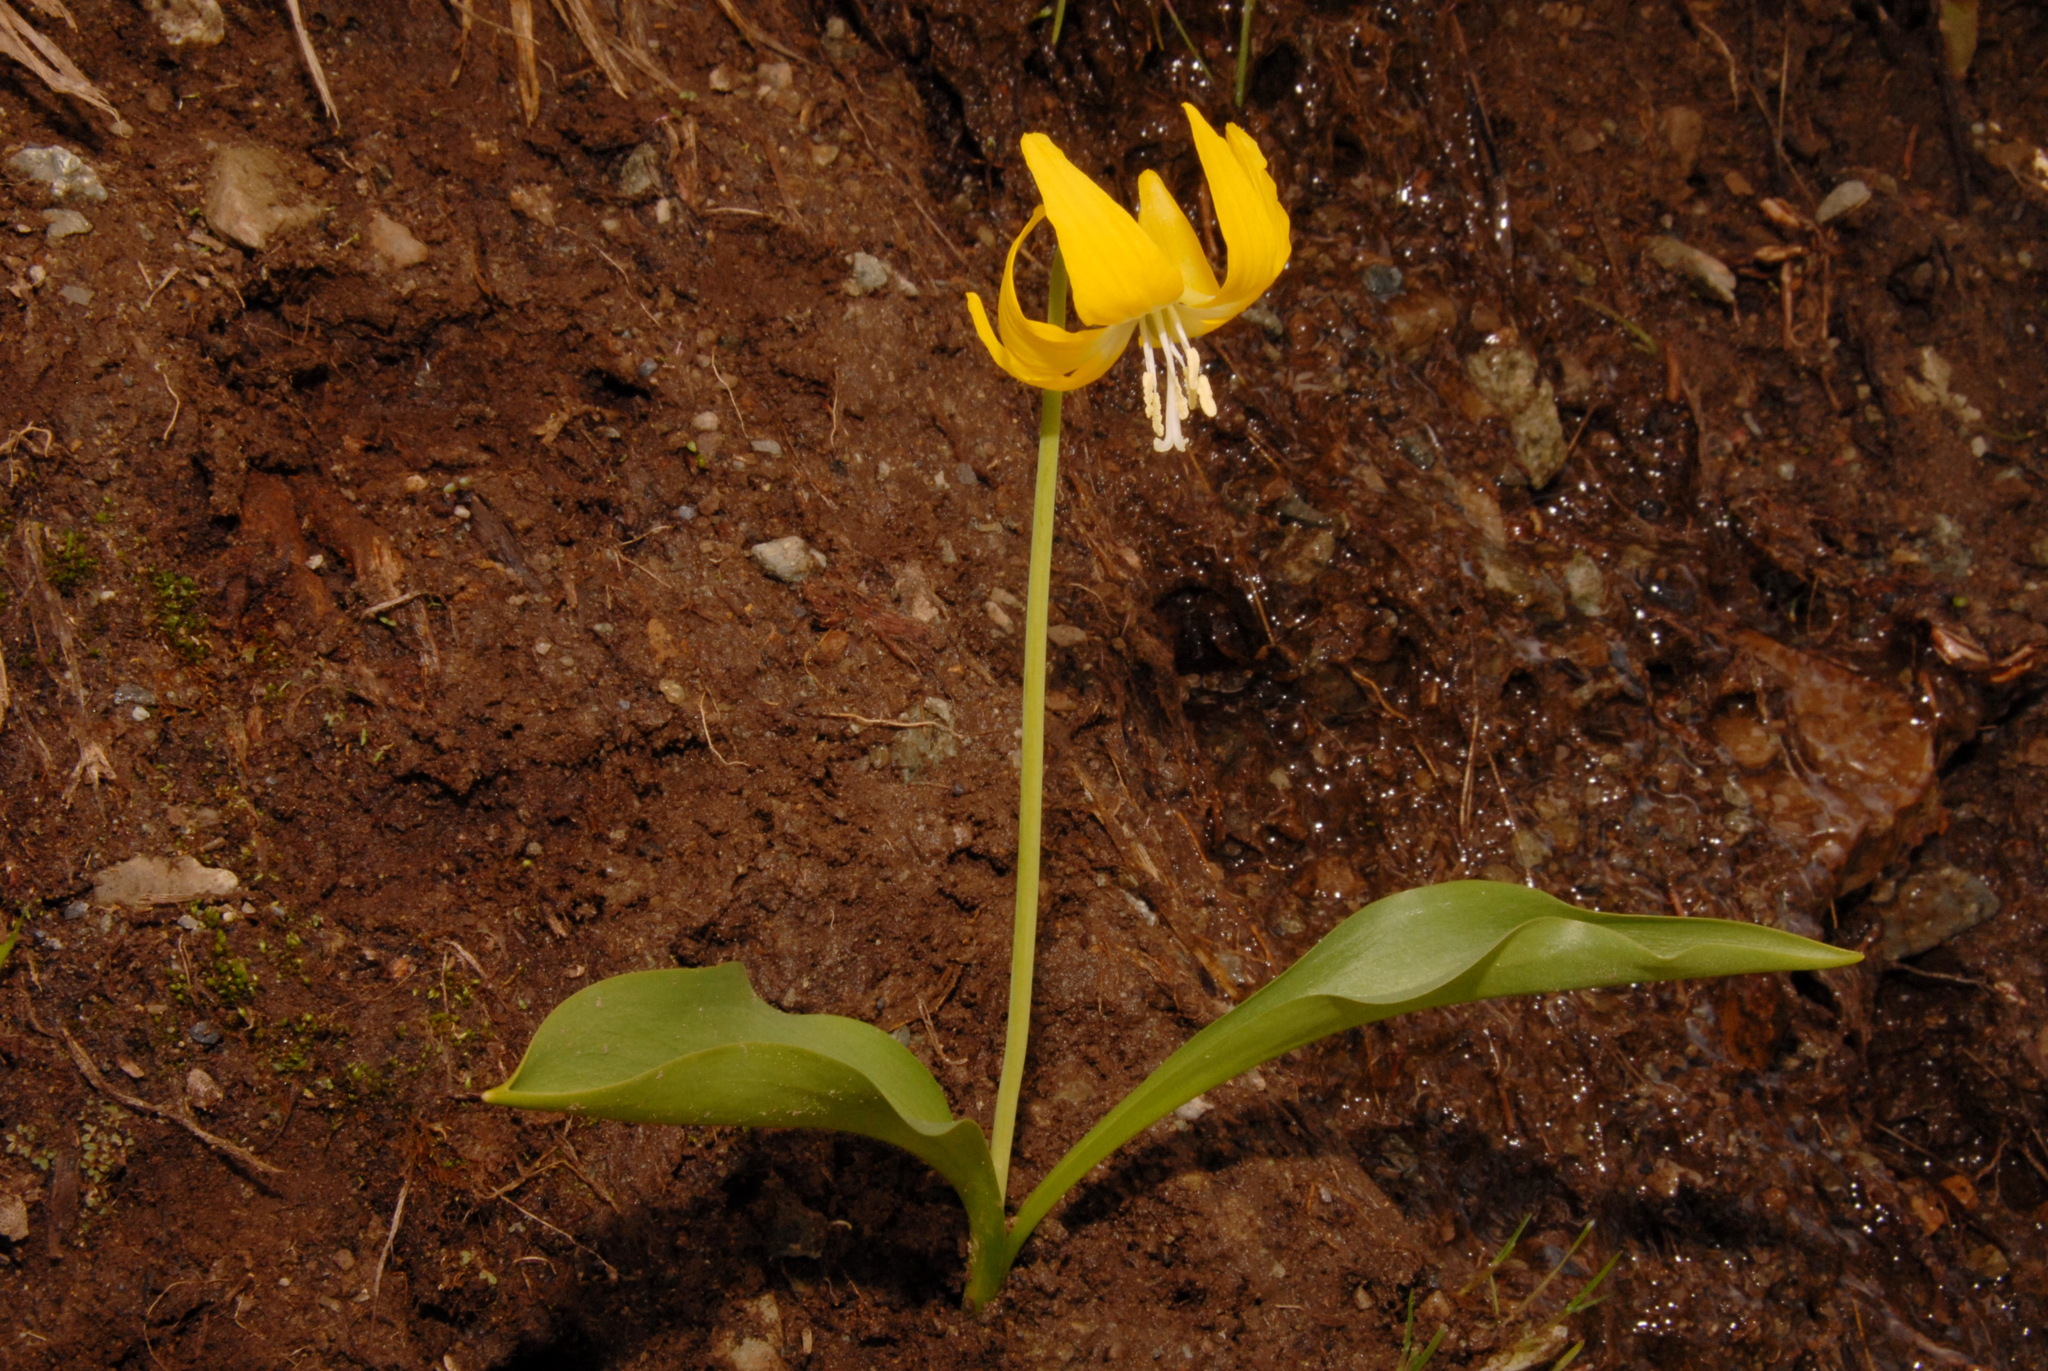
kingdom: Plantae
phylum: Tracheophyta
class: Liliopsida
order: Liliales
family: Liliaceae
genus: Erythronium
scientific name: Erythronium grandiflorum
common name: Avalanche-lily
